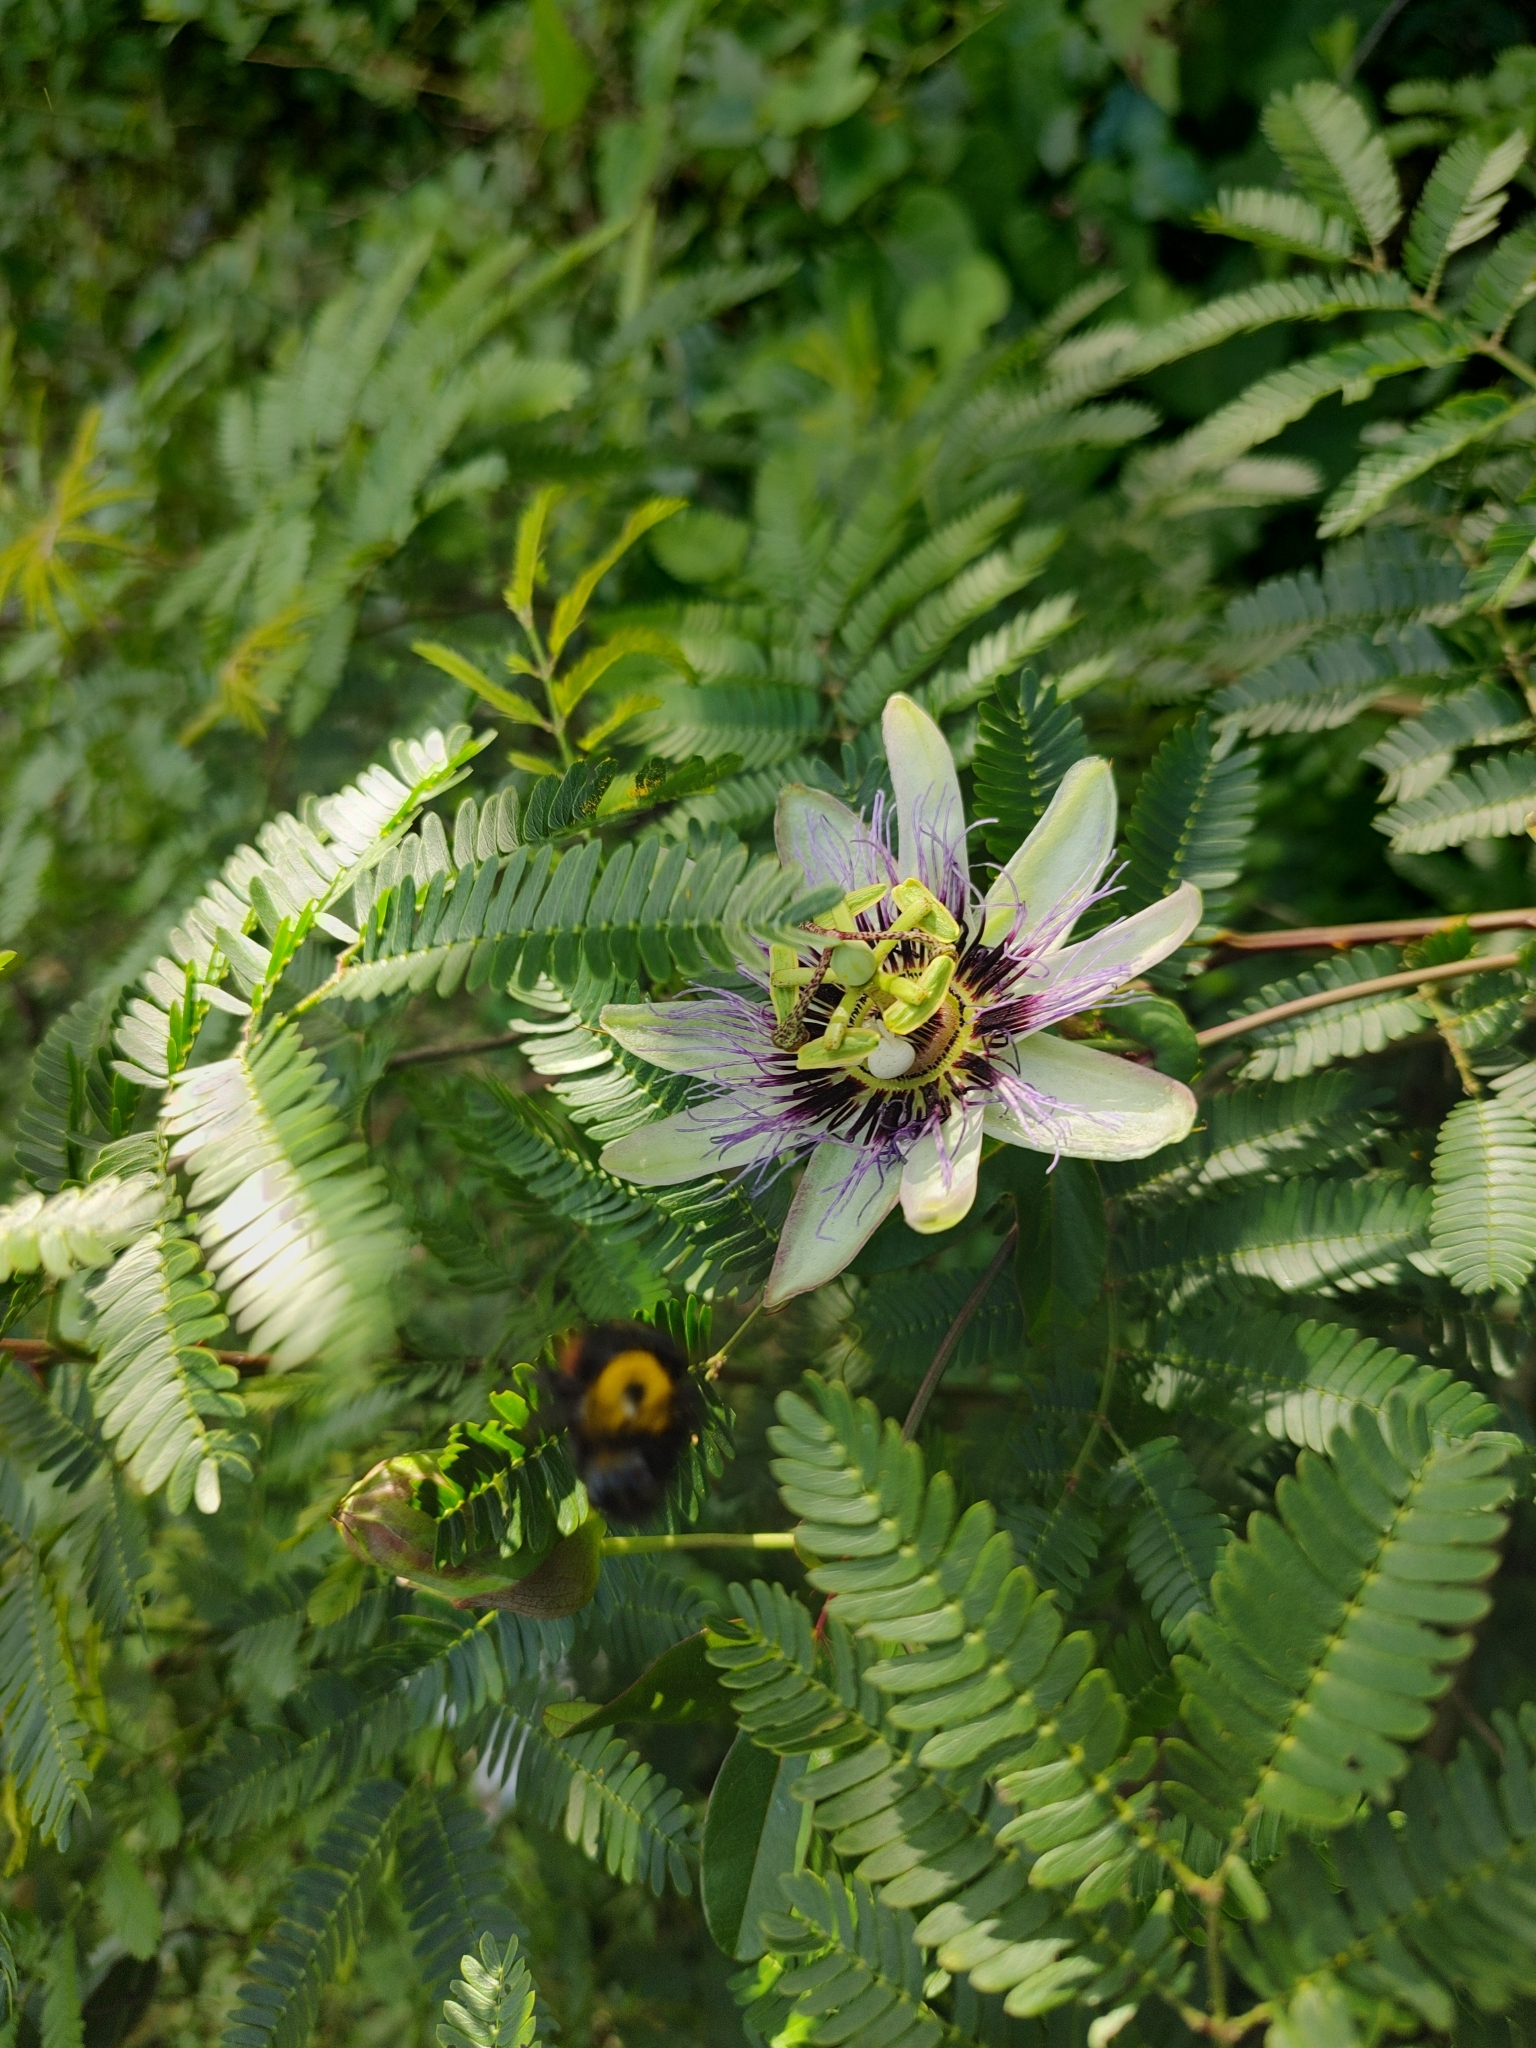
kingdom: Animalia
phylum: Arthropoda
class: Insecta
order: Hymenoptera
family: Apidae
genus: Xylocopa
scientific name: Xylocopa augusti
